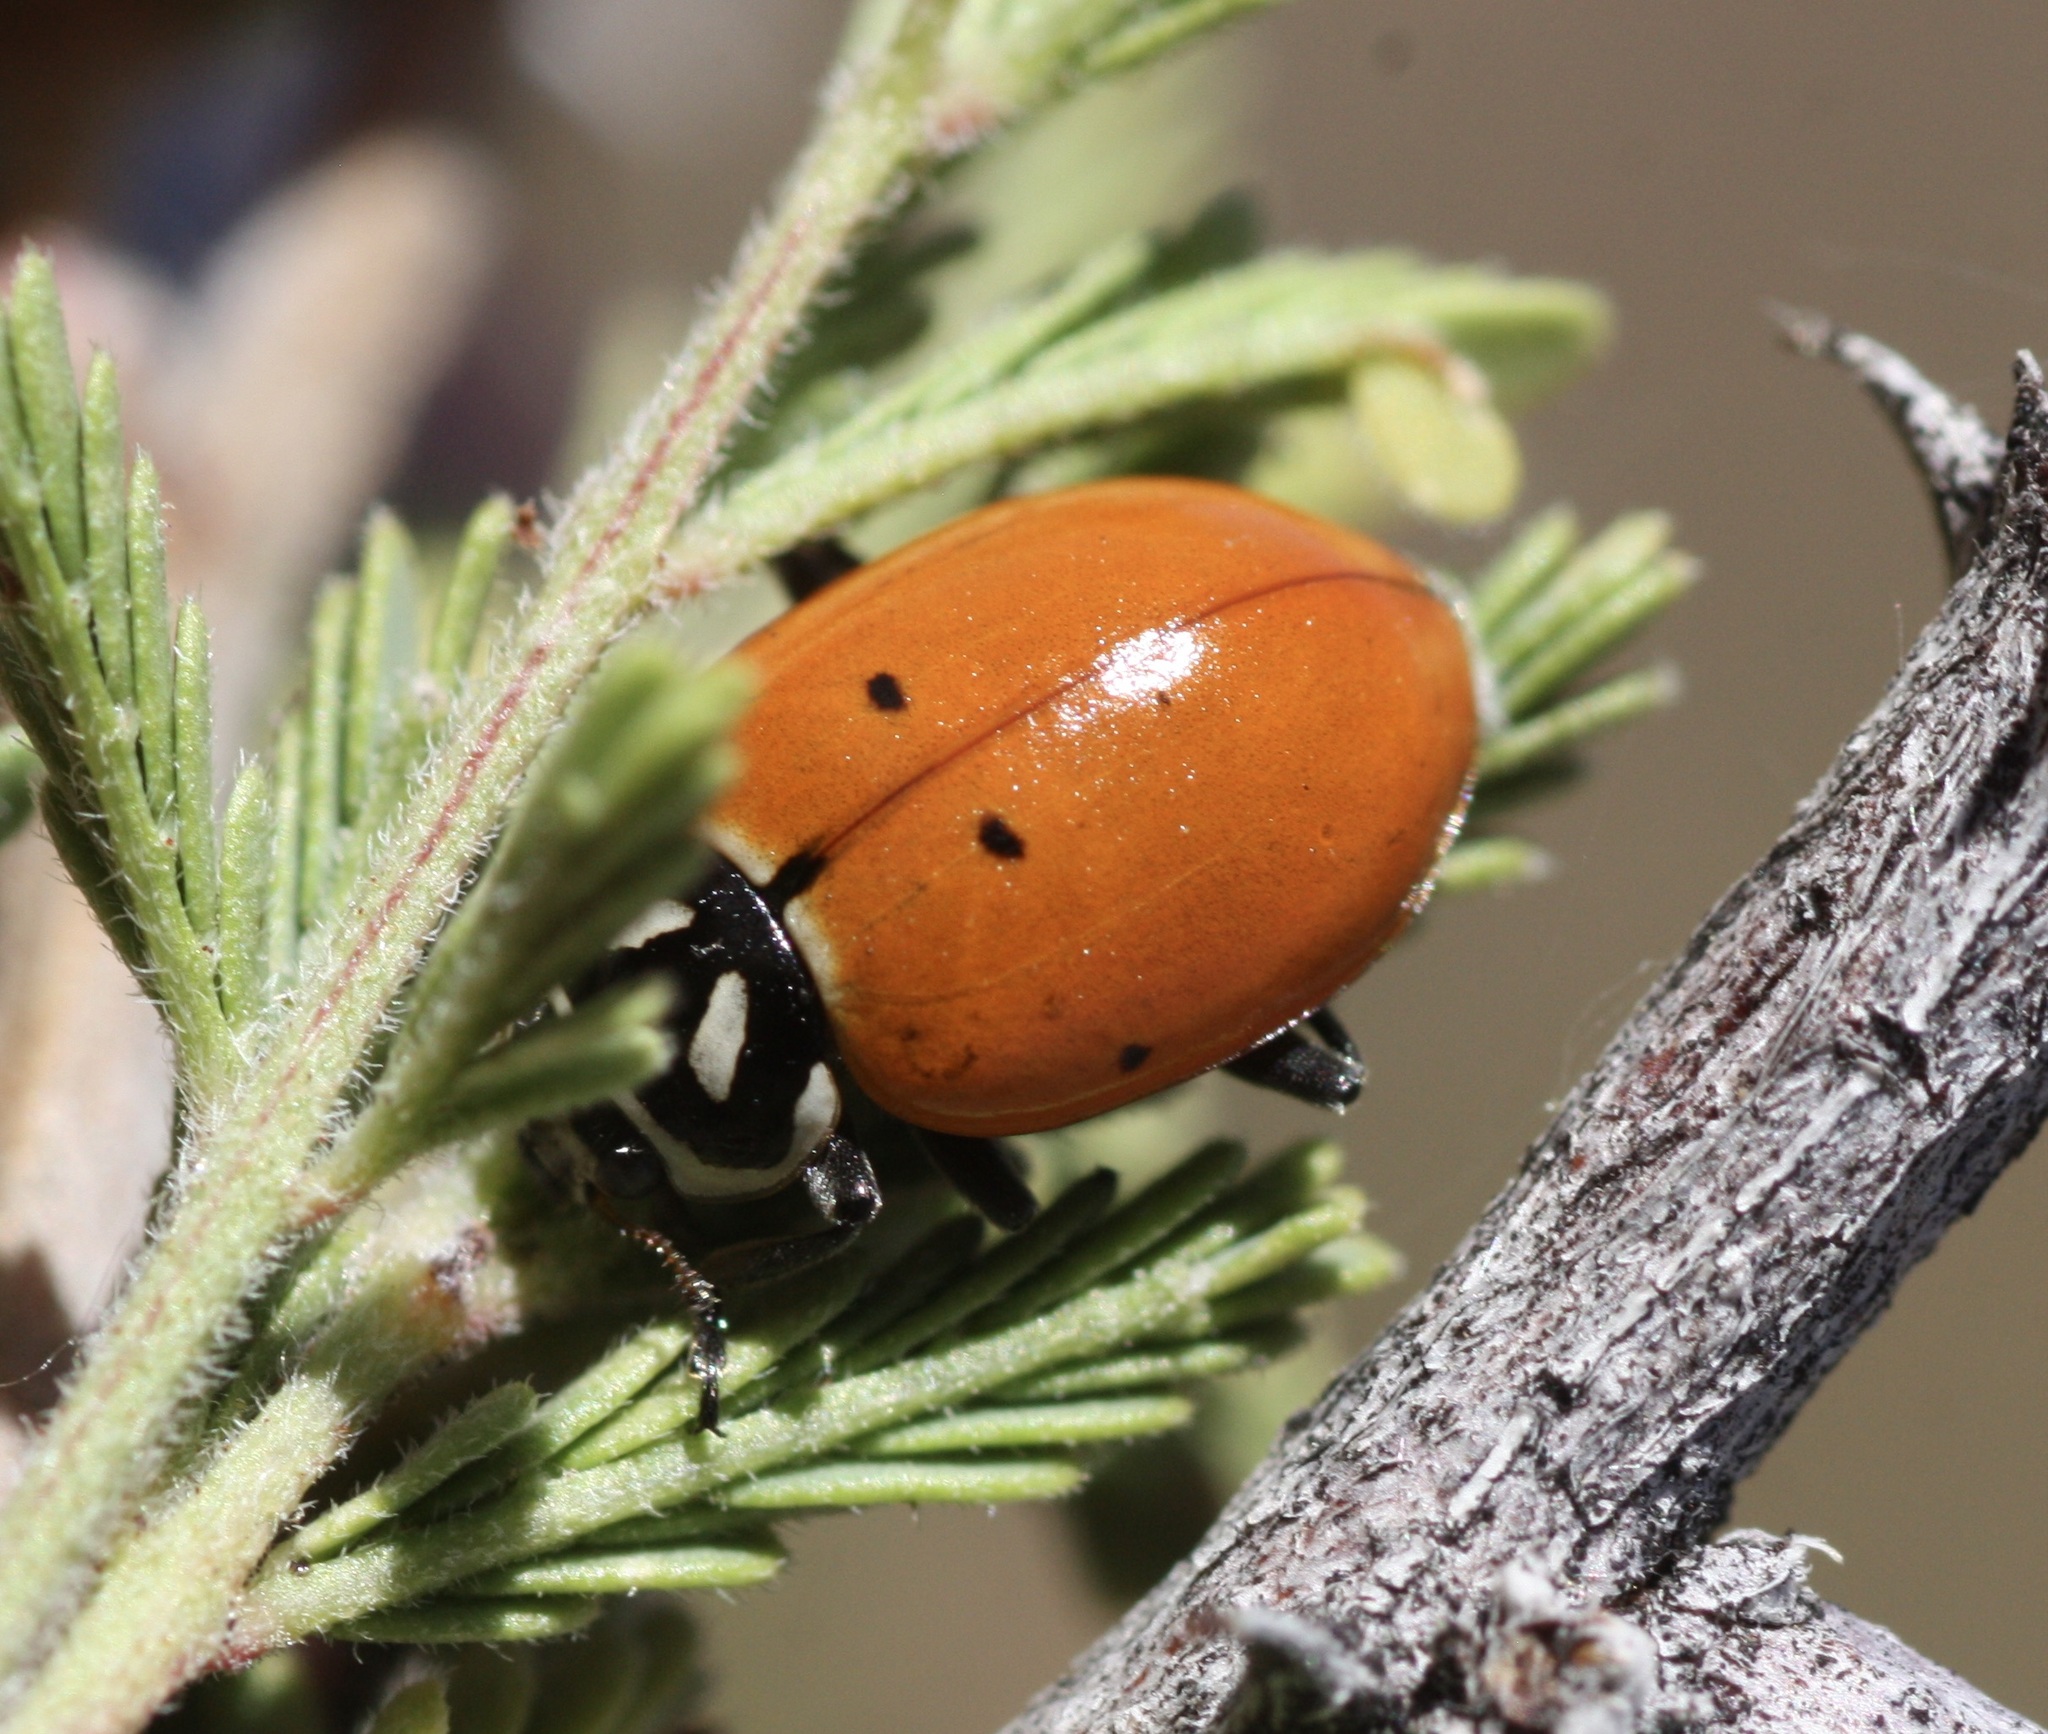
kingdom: Animalia
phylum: Arthropoda
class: Insecta
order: Coleoptera
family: Coccinellidae
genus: Hippodamia
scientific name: Hippodamia convergens
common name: Convergent lady beetle
